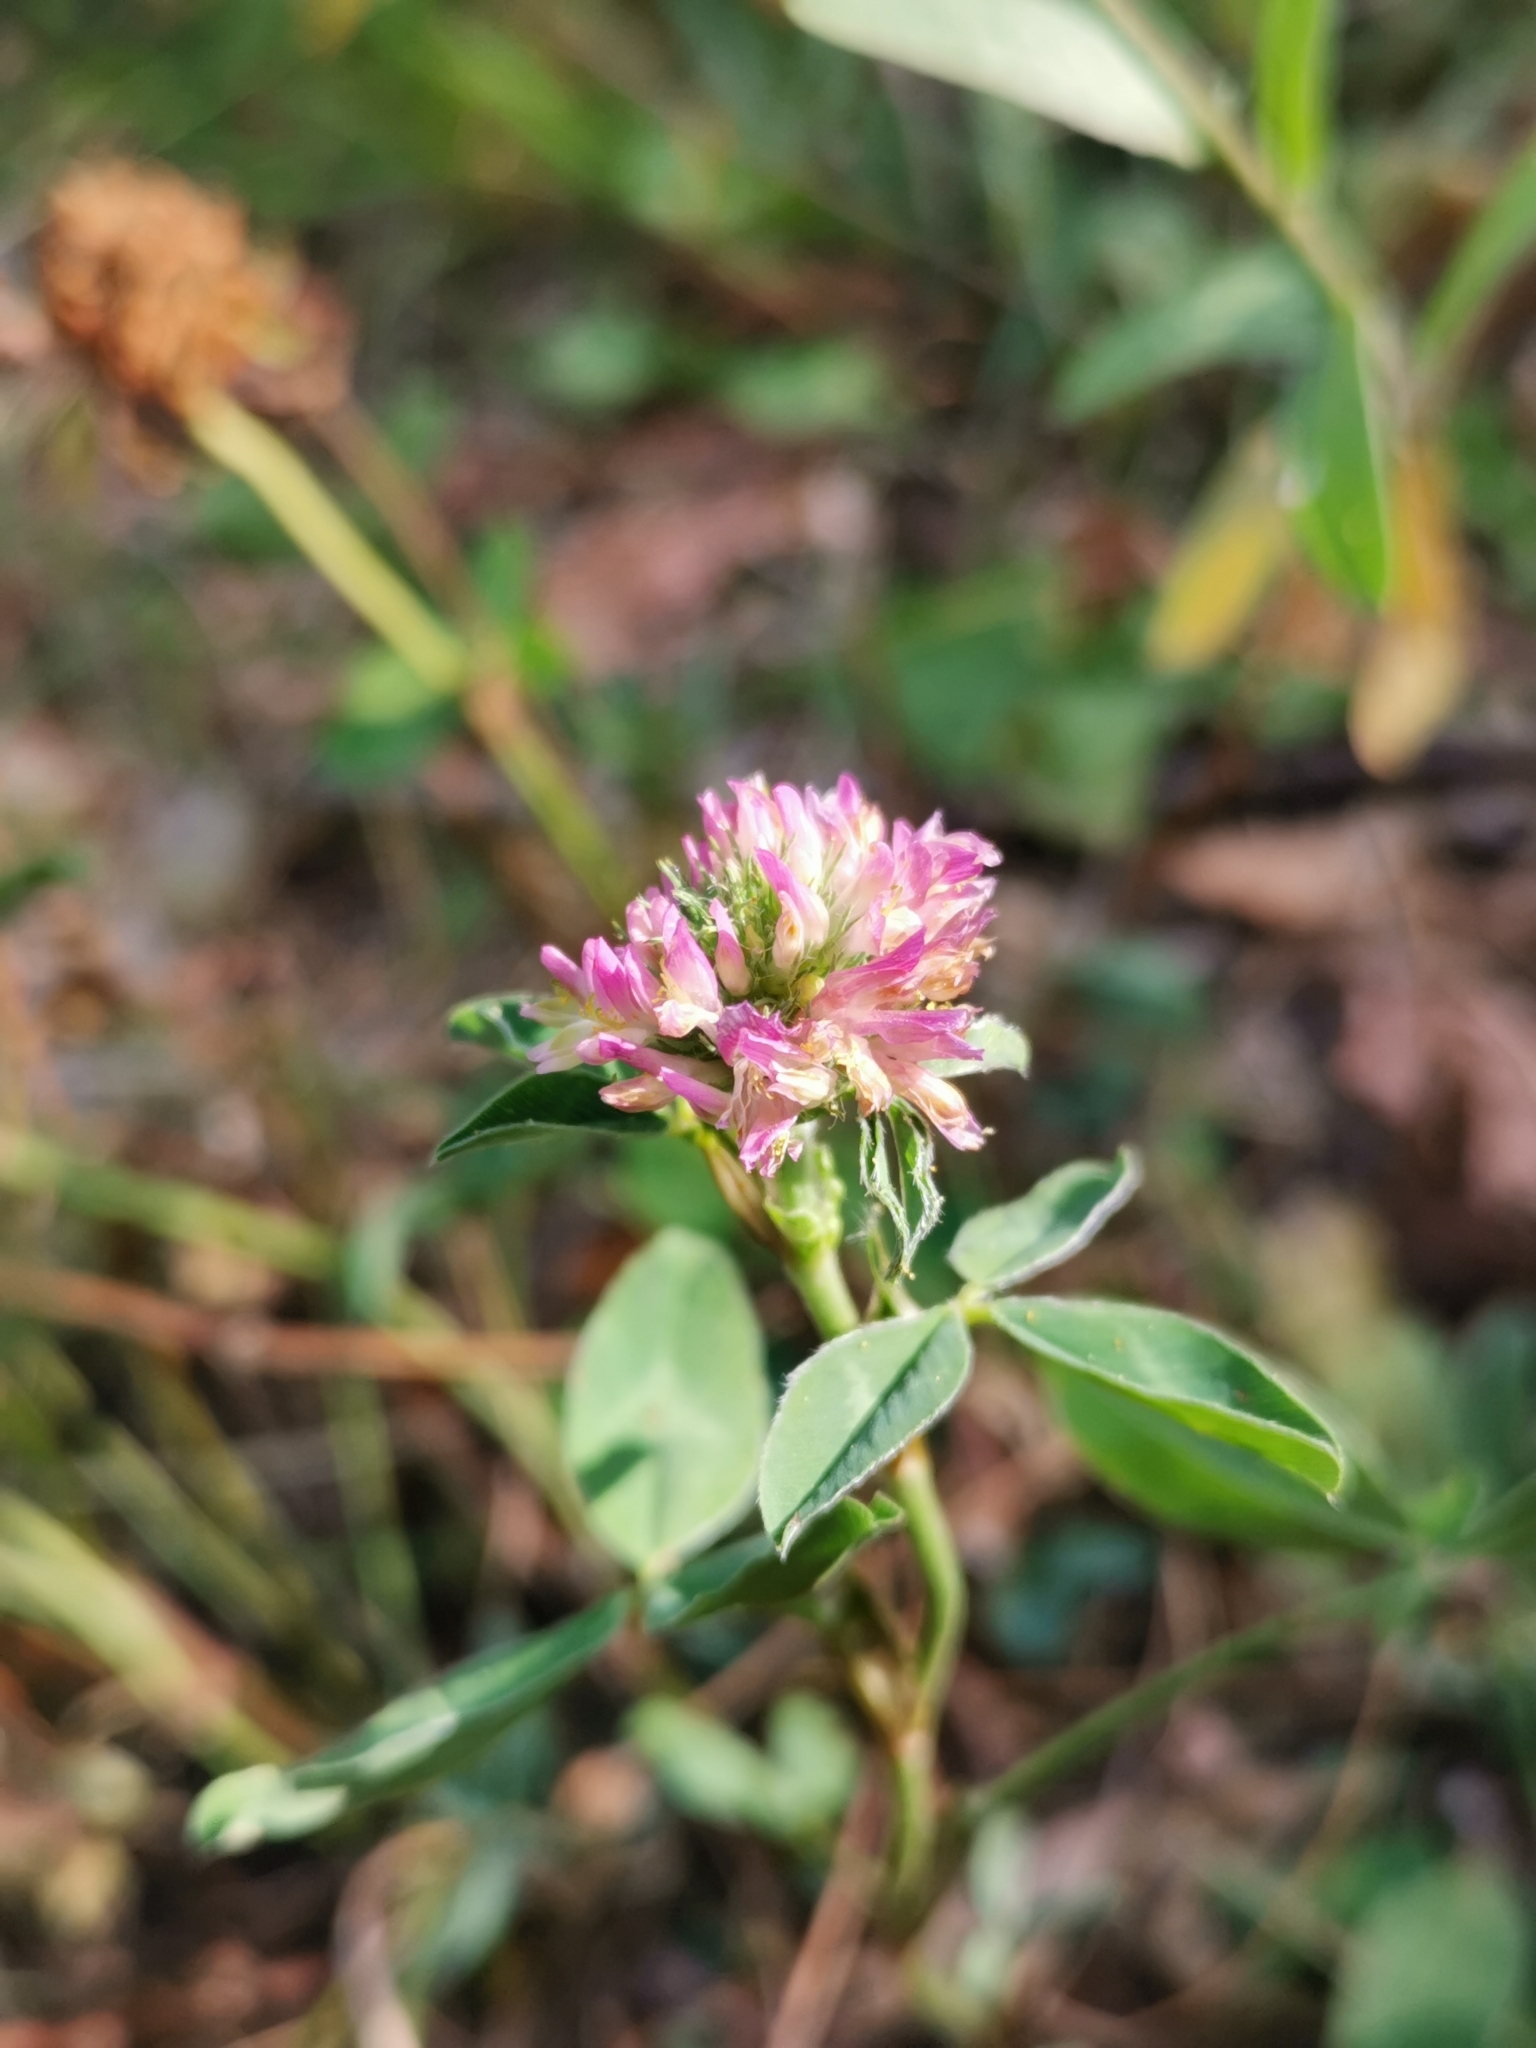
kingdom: Plantae
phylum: Tracheophyta
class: Magnoliopsida
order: Fabales
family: Fabaceae
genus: Trifolium
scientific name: Trifolium pratense
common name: Red clover
